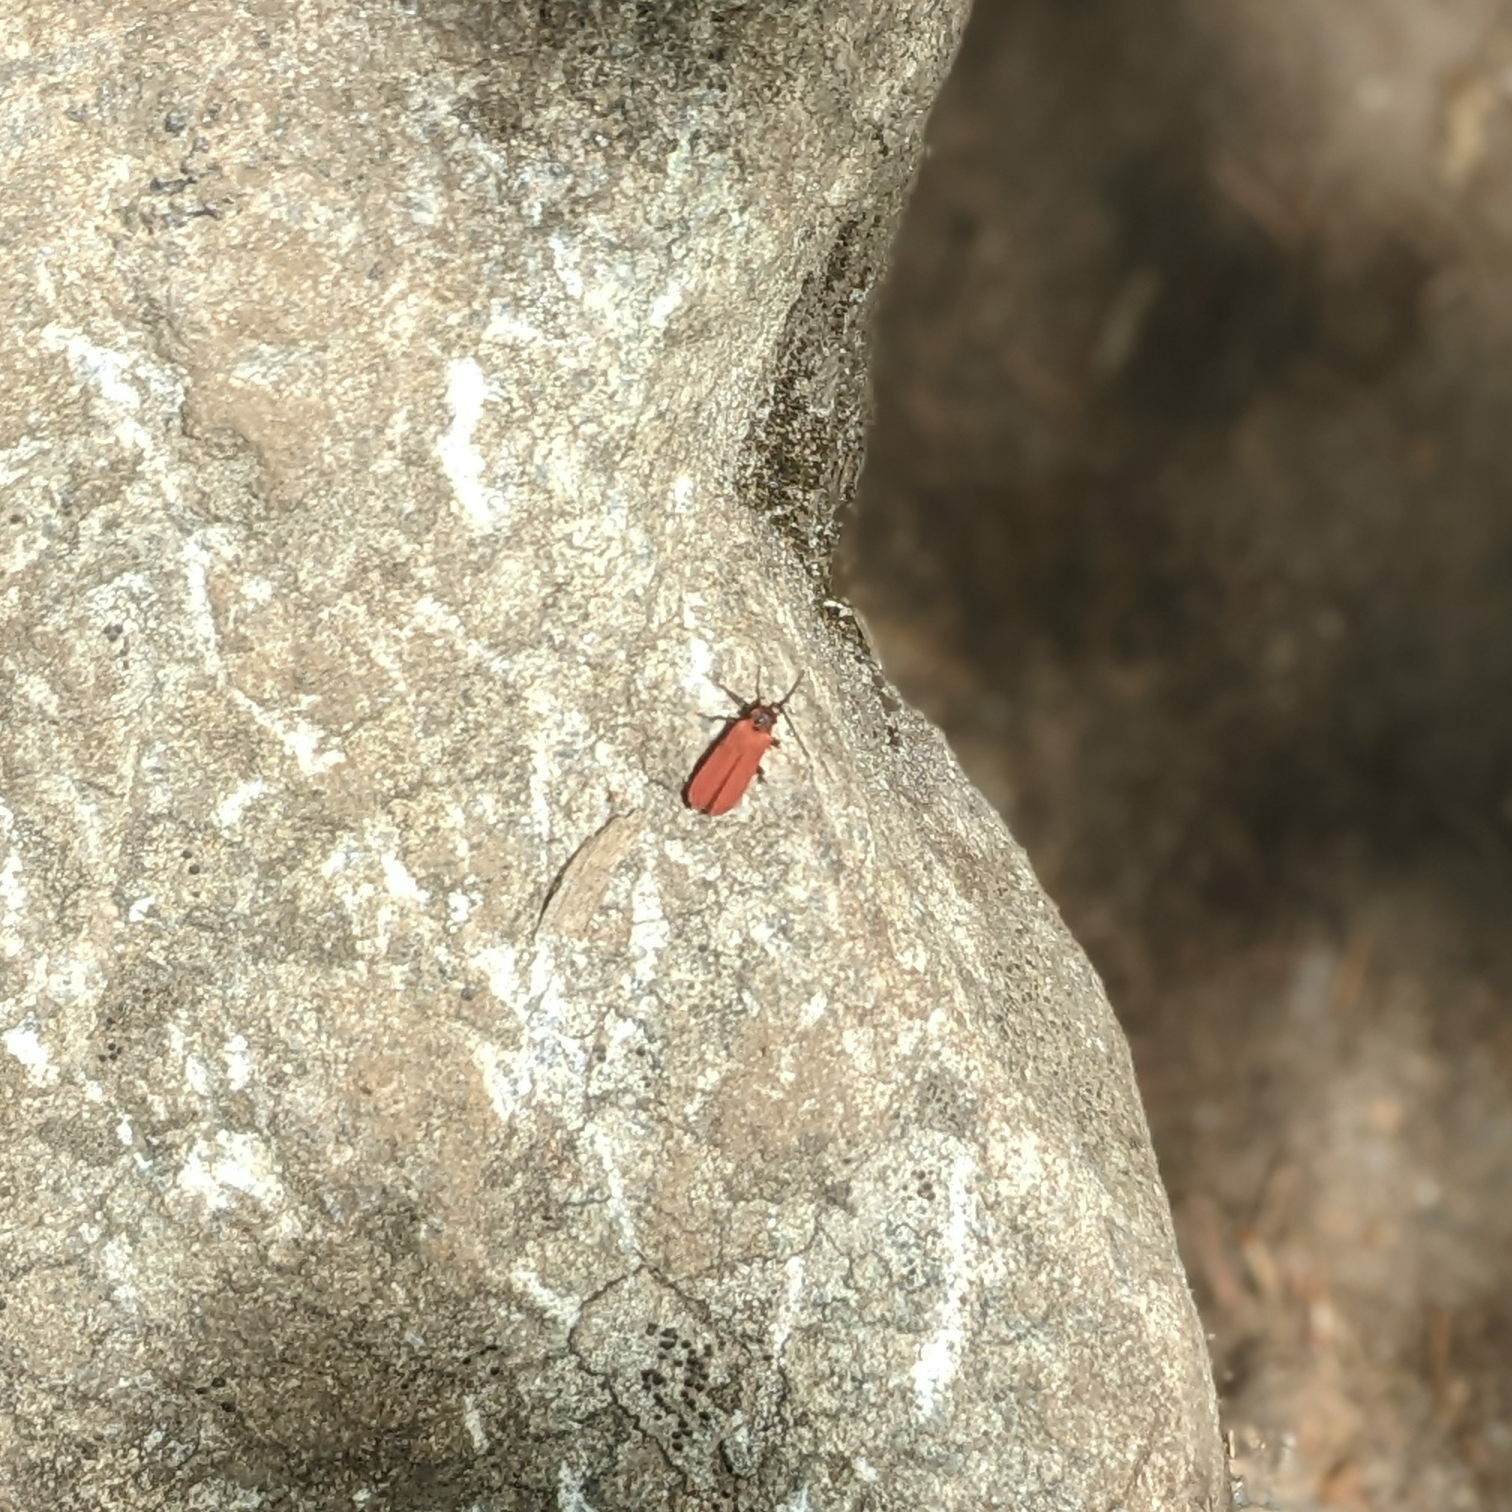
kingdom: Animalia
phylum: Arthropoda
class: Insecta
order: Coleoptera
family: Lycidae
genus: Dictyoptera
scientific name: Dictyoptera aurora
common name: Golden net-winged beetle
